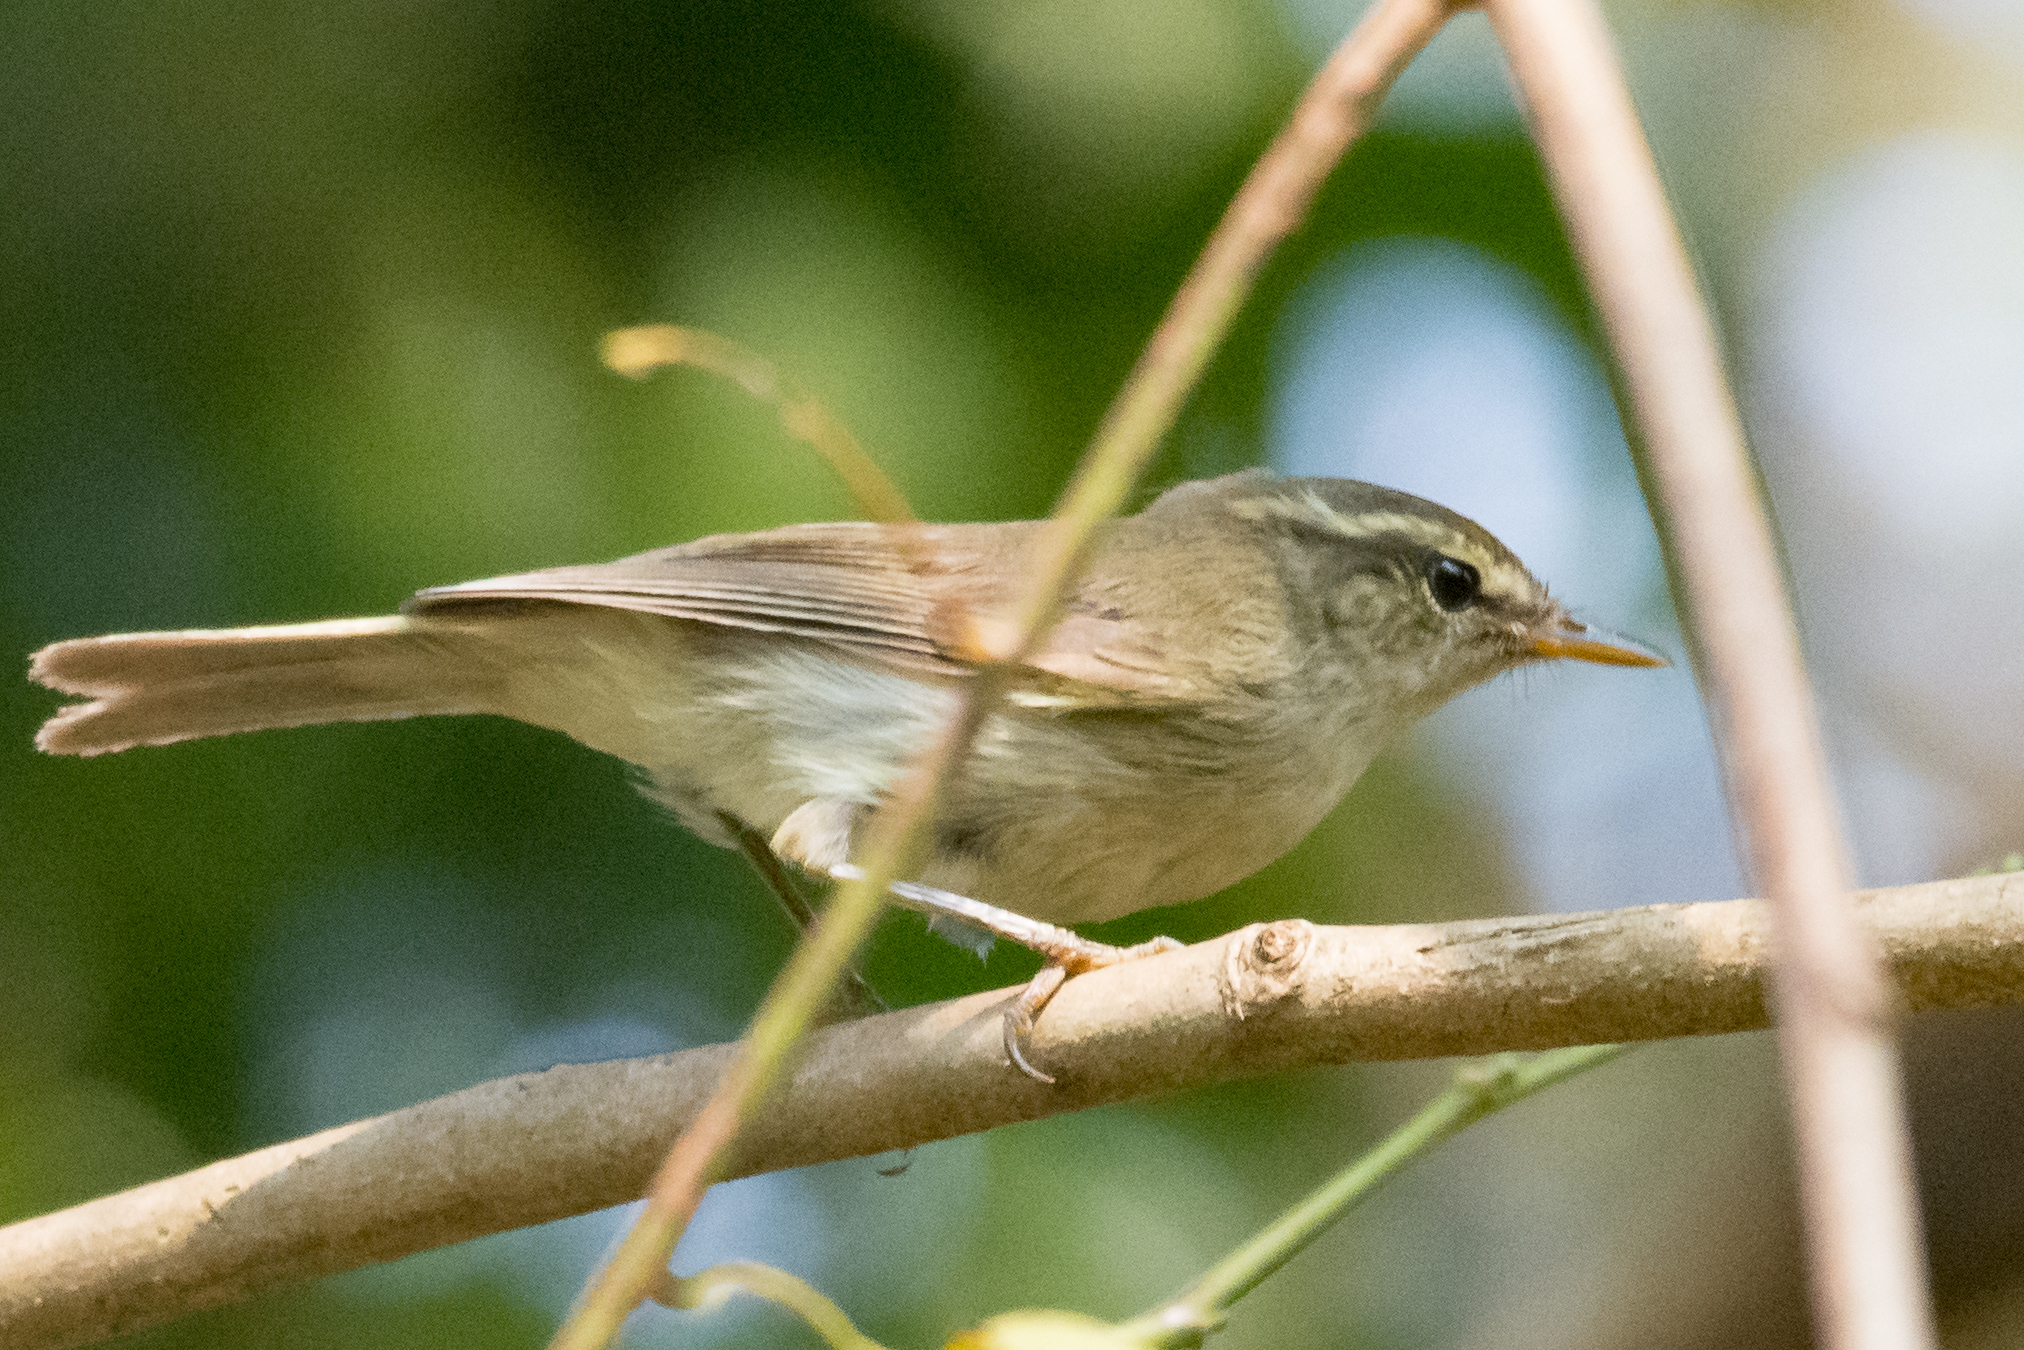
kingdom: Animalia
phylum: Chordata
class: Aves
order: Passeriformes
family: Phylloscopidae
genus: Phylloscopus
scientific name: Phylloscopus armandii
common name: Yellow-streaked warbler
